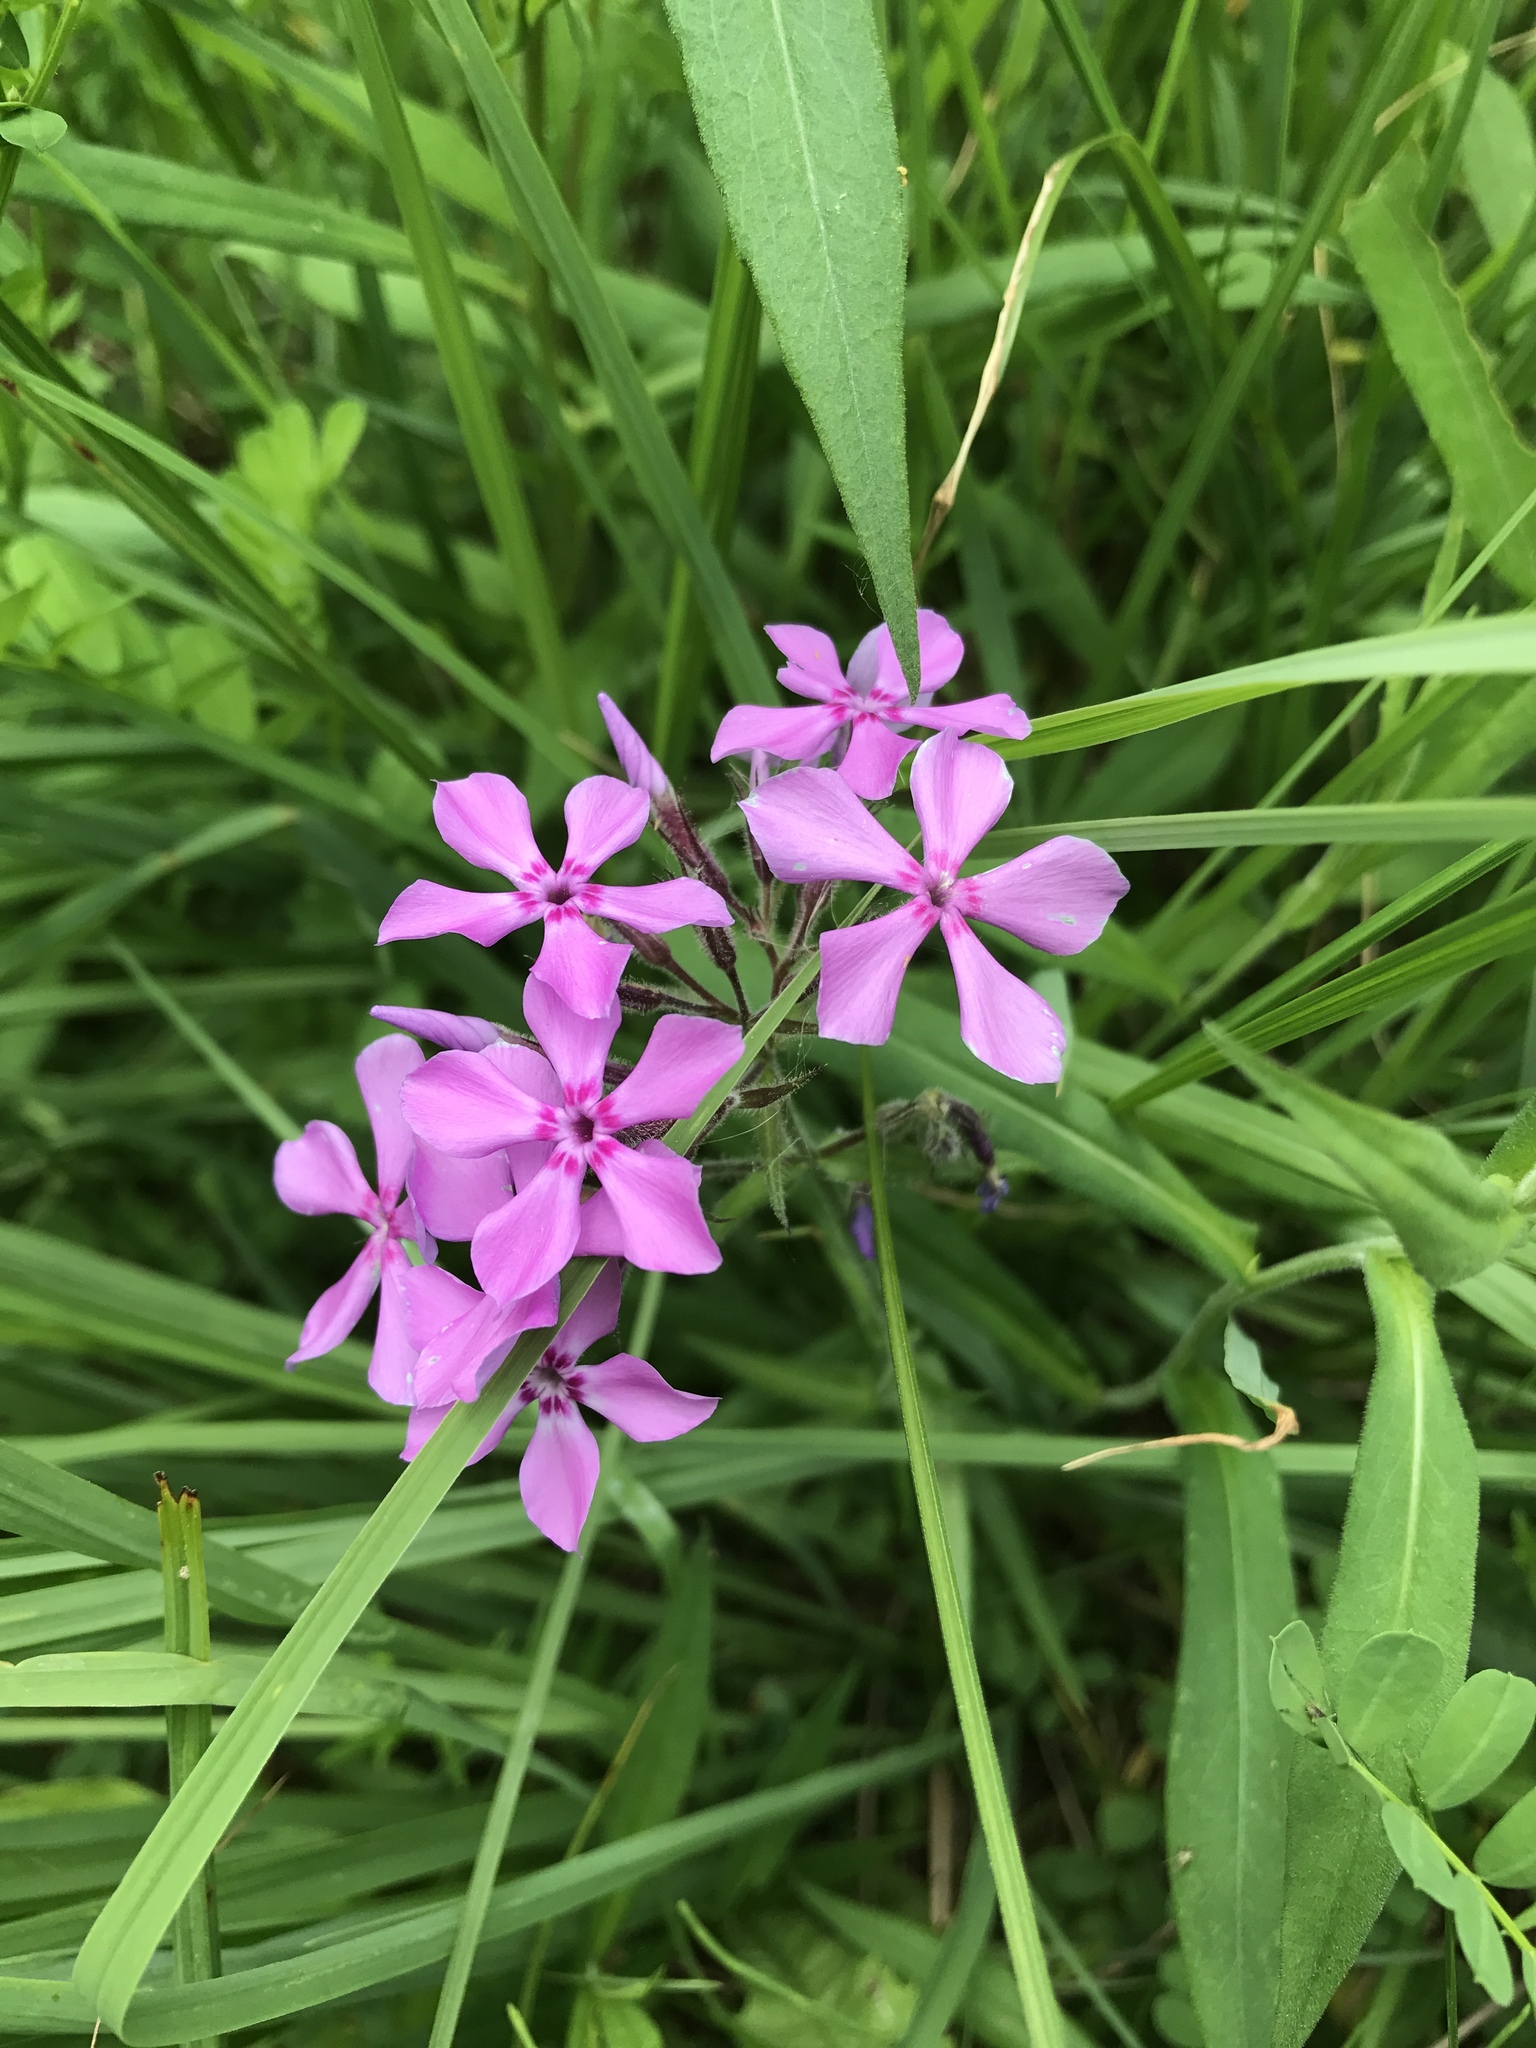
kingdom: Plantae
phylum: Tracheophyta
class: Magnoliopsida
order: Ericales
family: Polemoniaceae
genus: Phlox
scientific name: Phlox pilosa
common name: Prairie phlox
